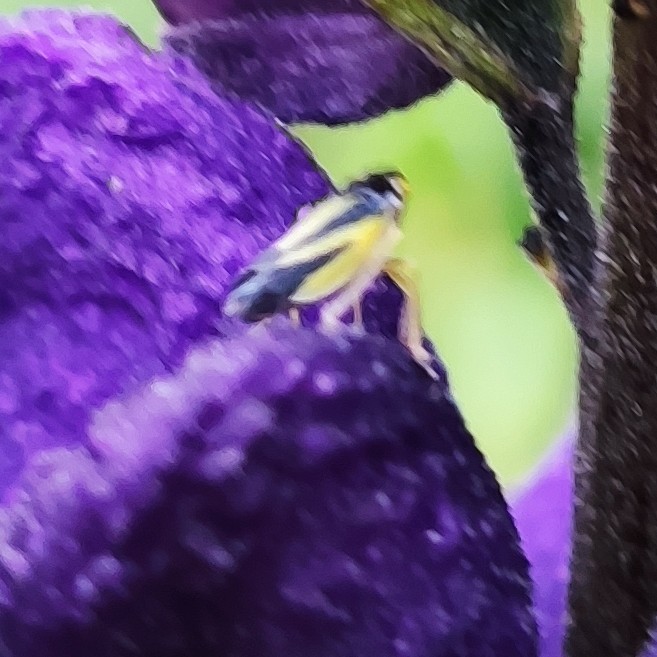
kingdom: Animalia
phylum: Arthropoda
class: Insecta
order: Hemiptera
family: Cicadellidae
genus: Evacanthus
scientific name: Evacanthus interruptus
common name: Leafhopper
